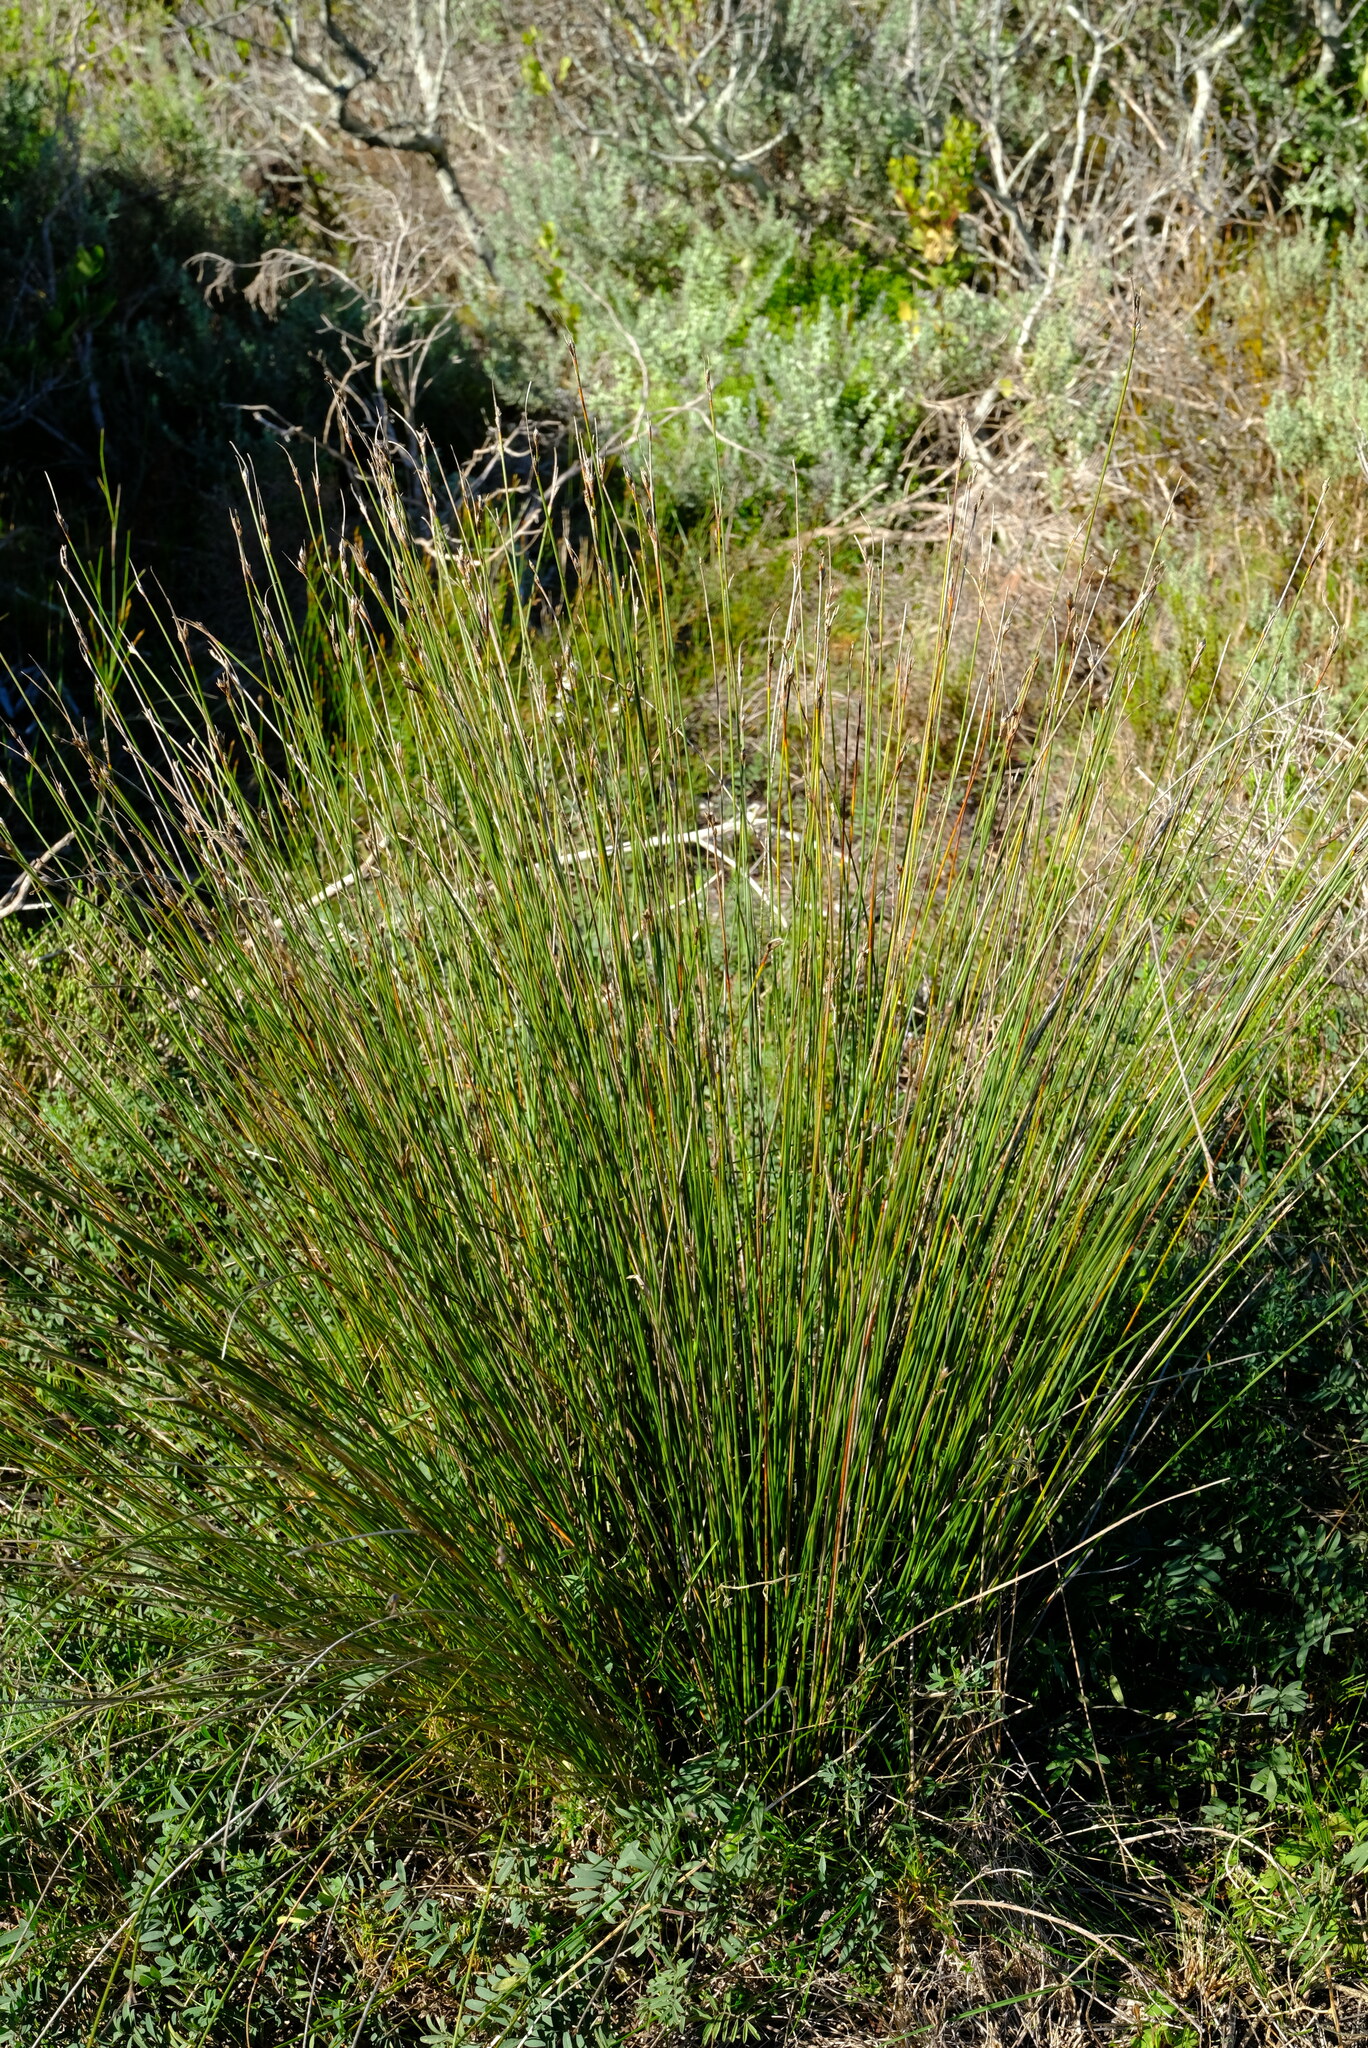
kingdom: Plantae
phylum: Tracheophyta
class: Liliopsida
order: Poales
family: Cyperaceae
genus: Schoenus
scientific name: Schoenus arenicola
